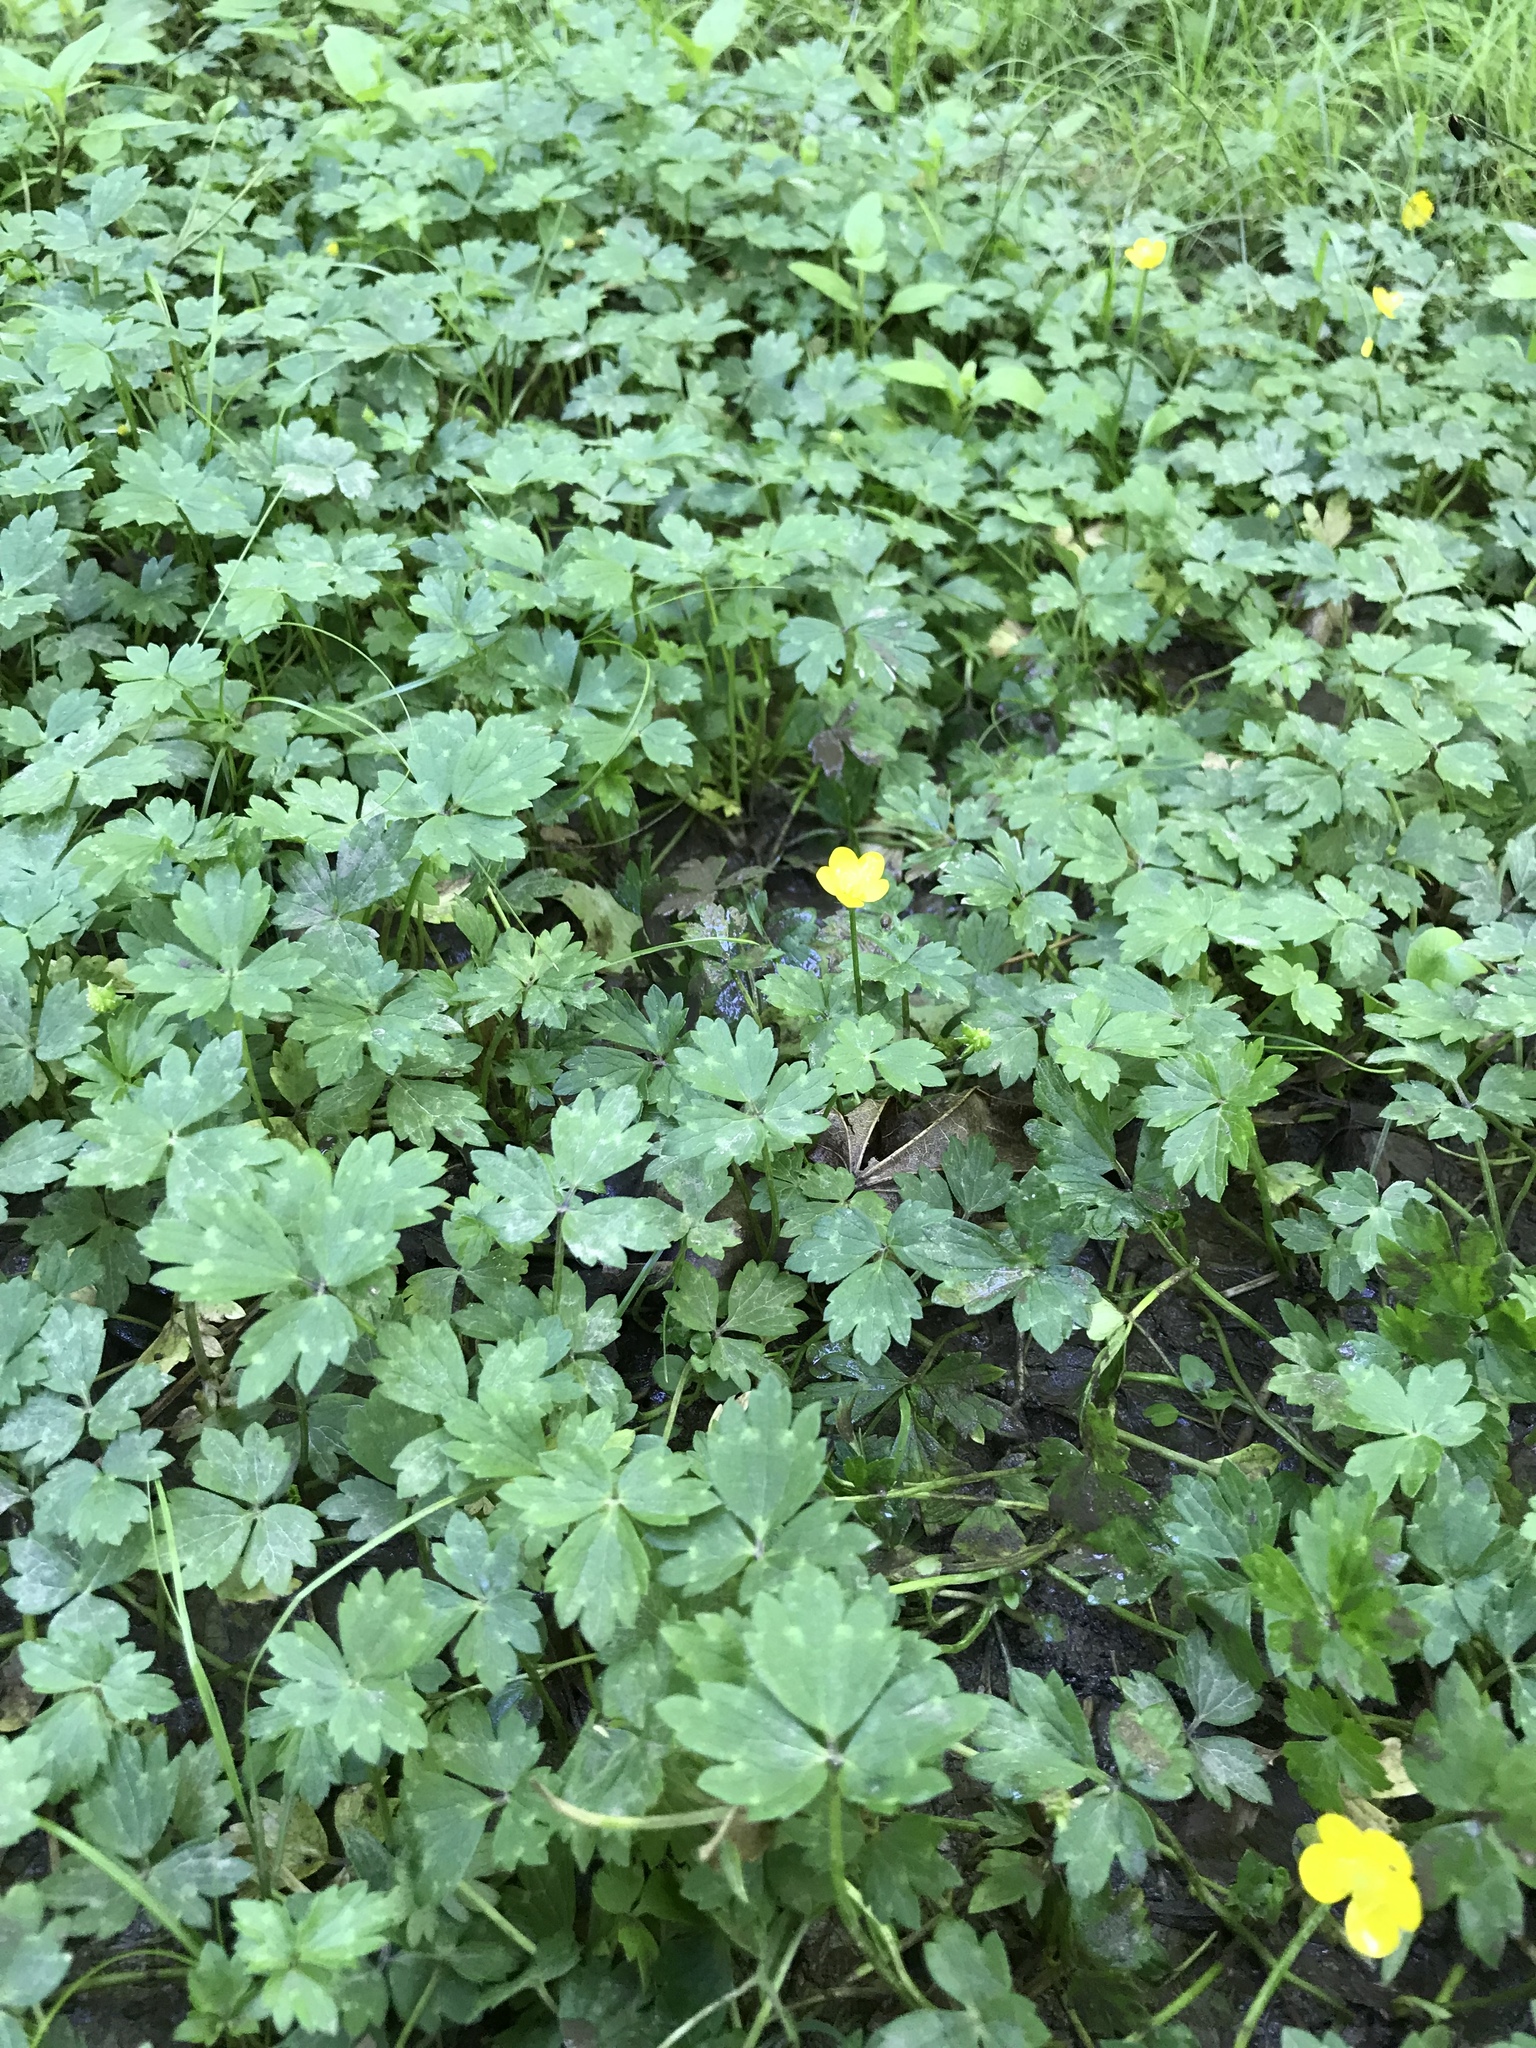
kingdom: Plantae
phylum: Tracheophyta
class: Magnoliopsida
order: Ranunculales
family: Ranunculaceae
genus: Ranunculus
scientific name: Ranunculus repens
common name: Creeping buttercup
